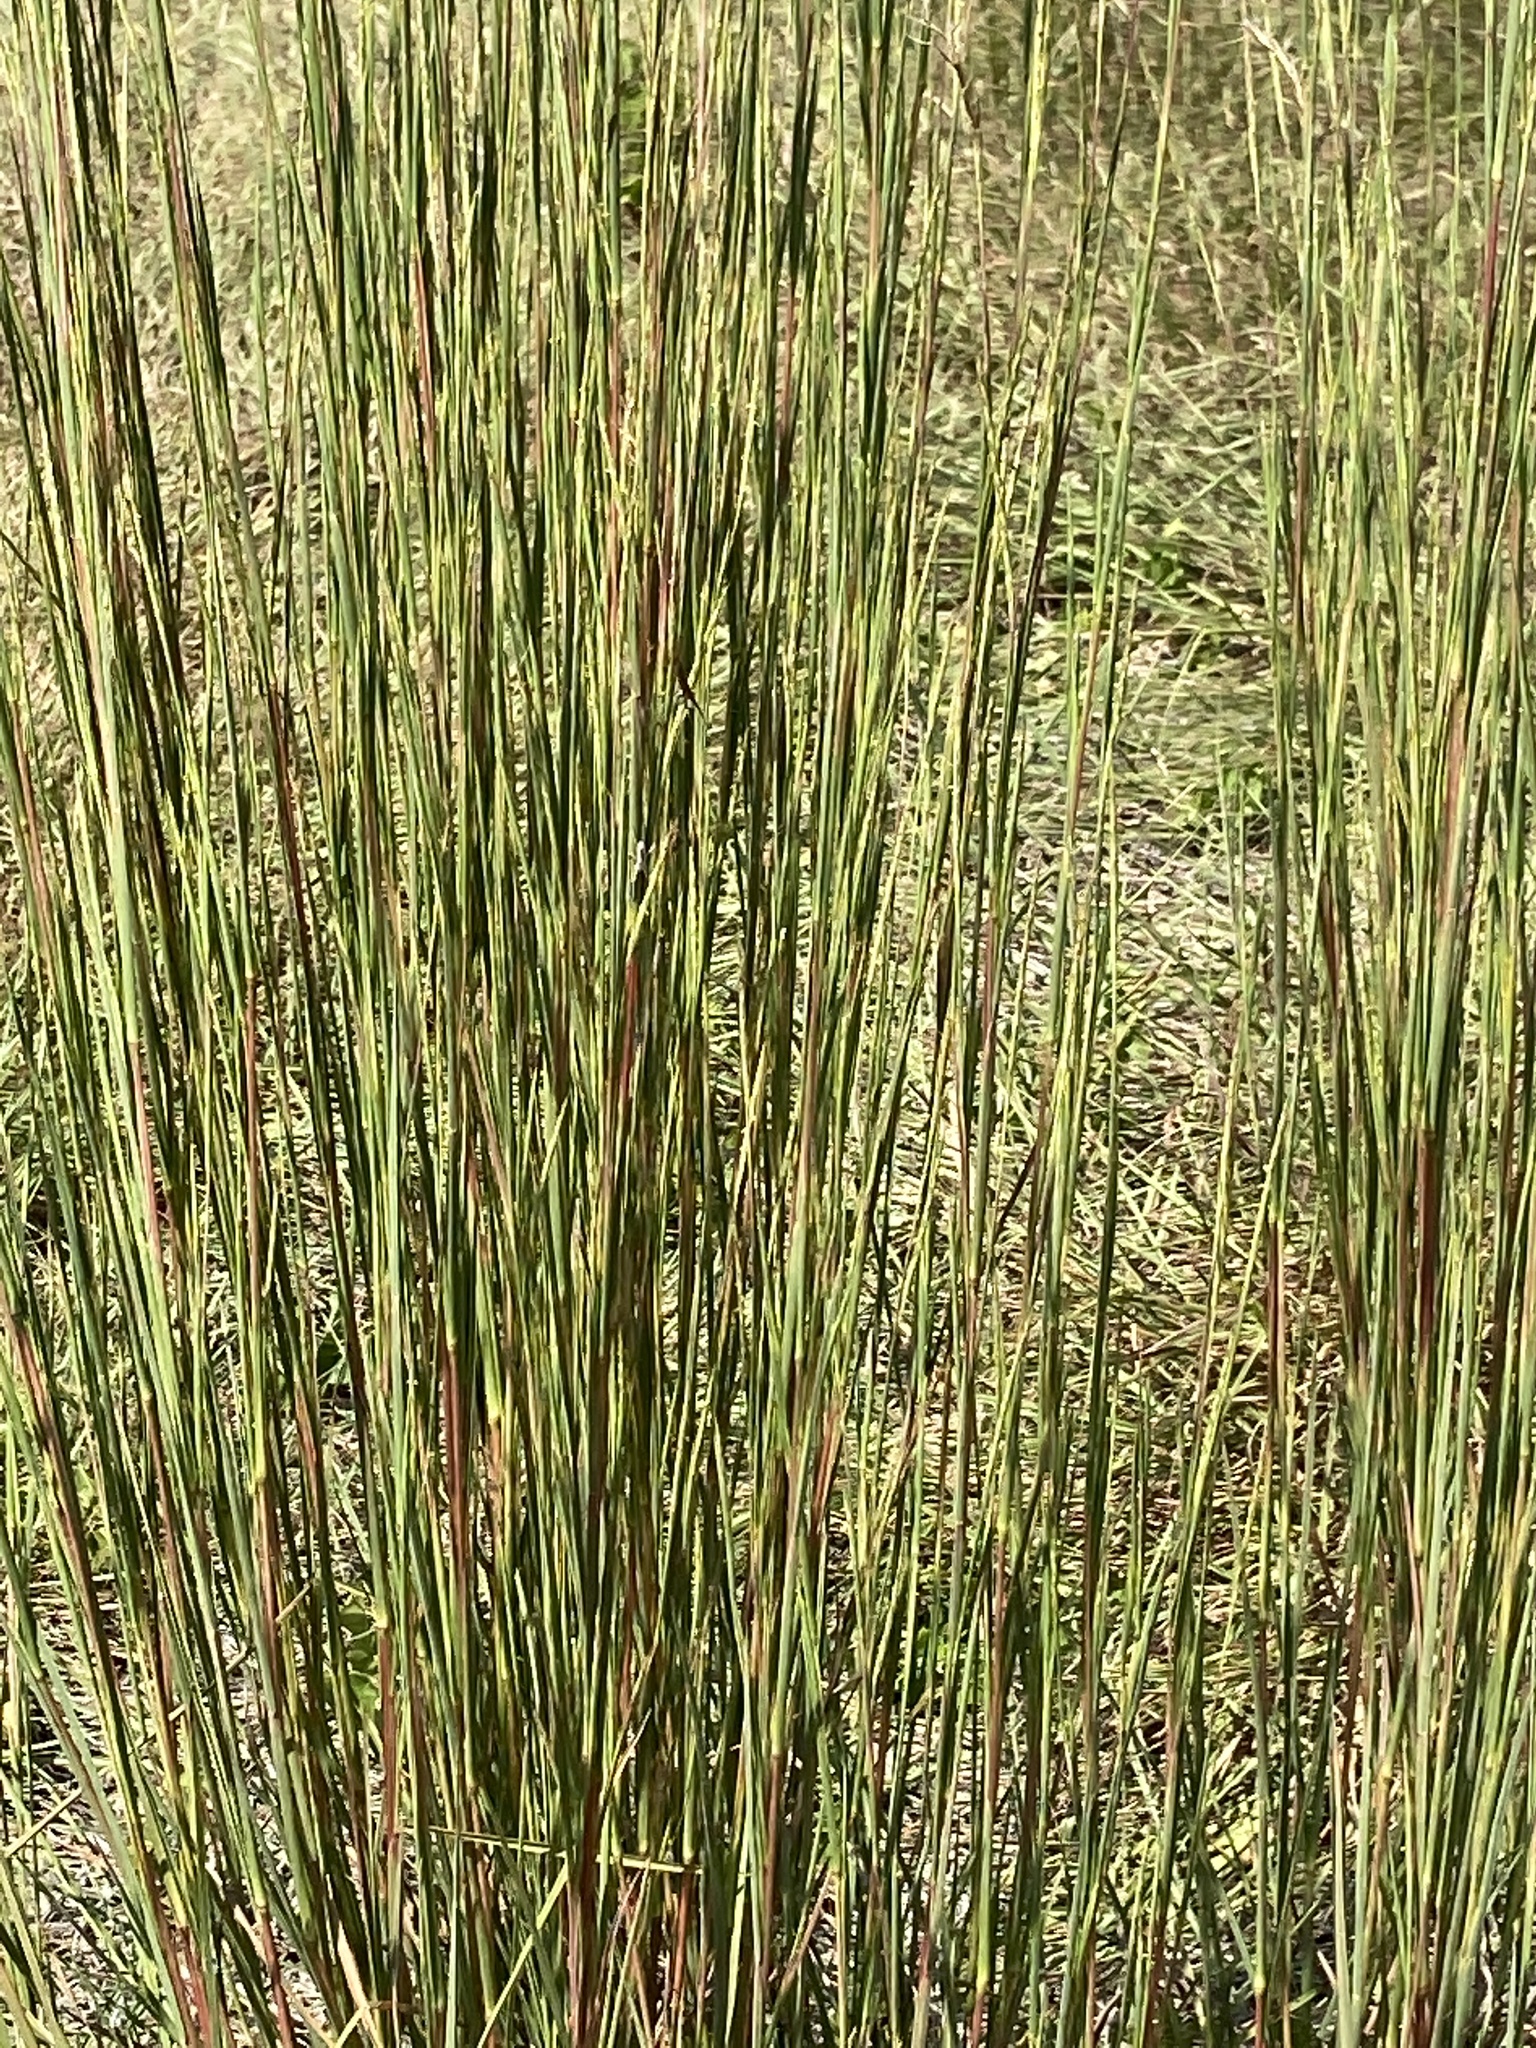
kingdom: Plantae
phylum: Tracheophyta
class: Liliopsida
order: Poales
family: Poaceae
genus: Schizachyrium
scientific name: Schizachyrium scoparium
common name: Little bluestem
